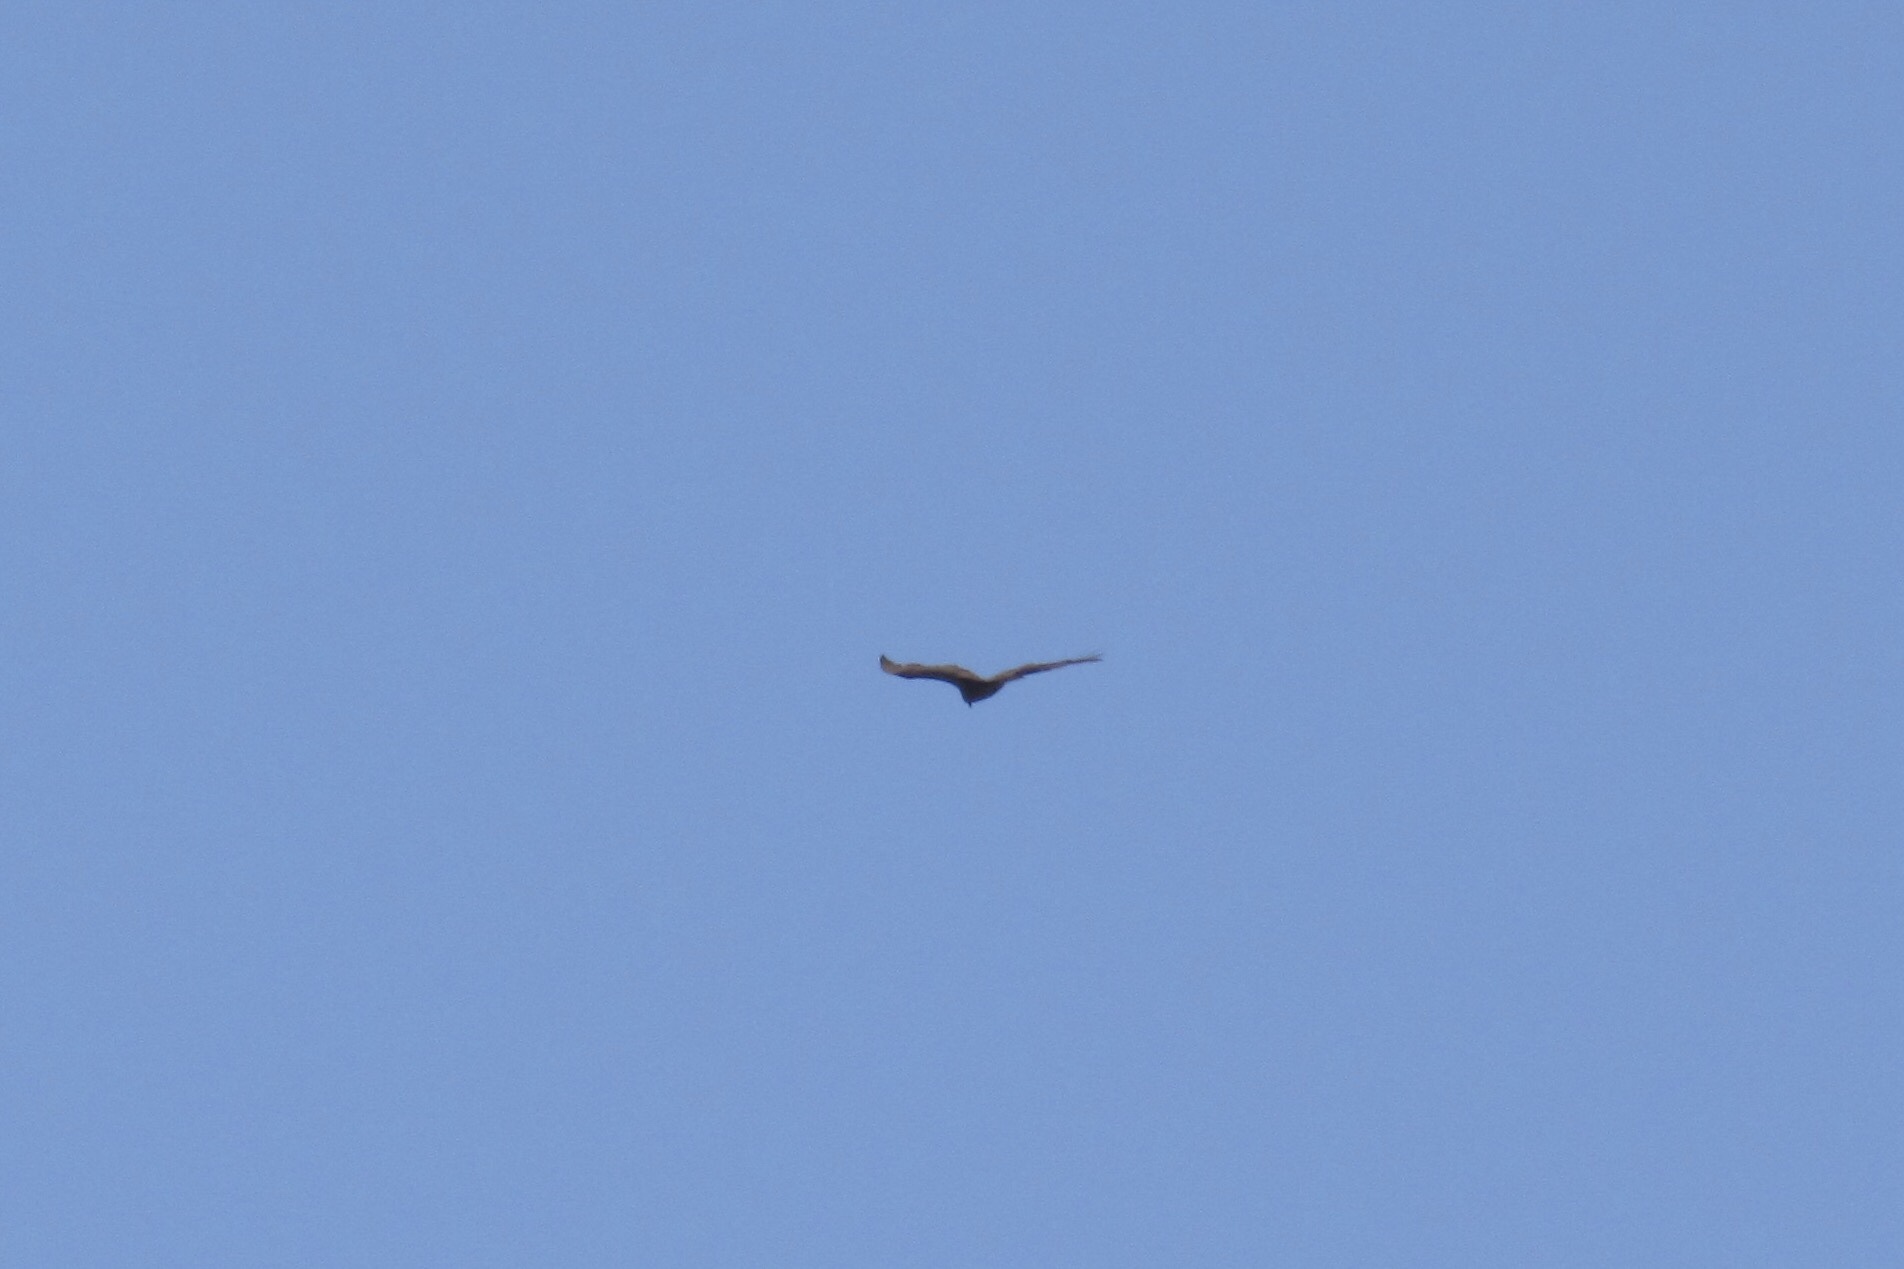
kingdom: Animalia
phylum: Chordata
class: Aves
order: Accipitriformes
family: Cathartidae
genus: Cathartes
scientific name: Cathartes aura
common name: Turkey vulture
